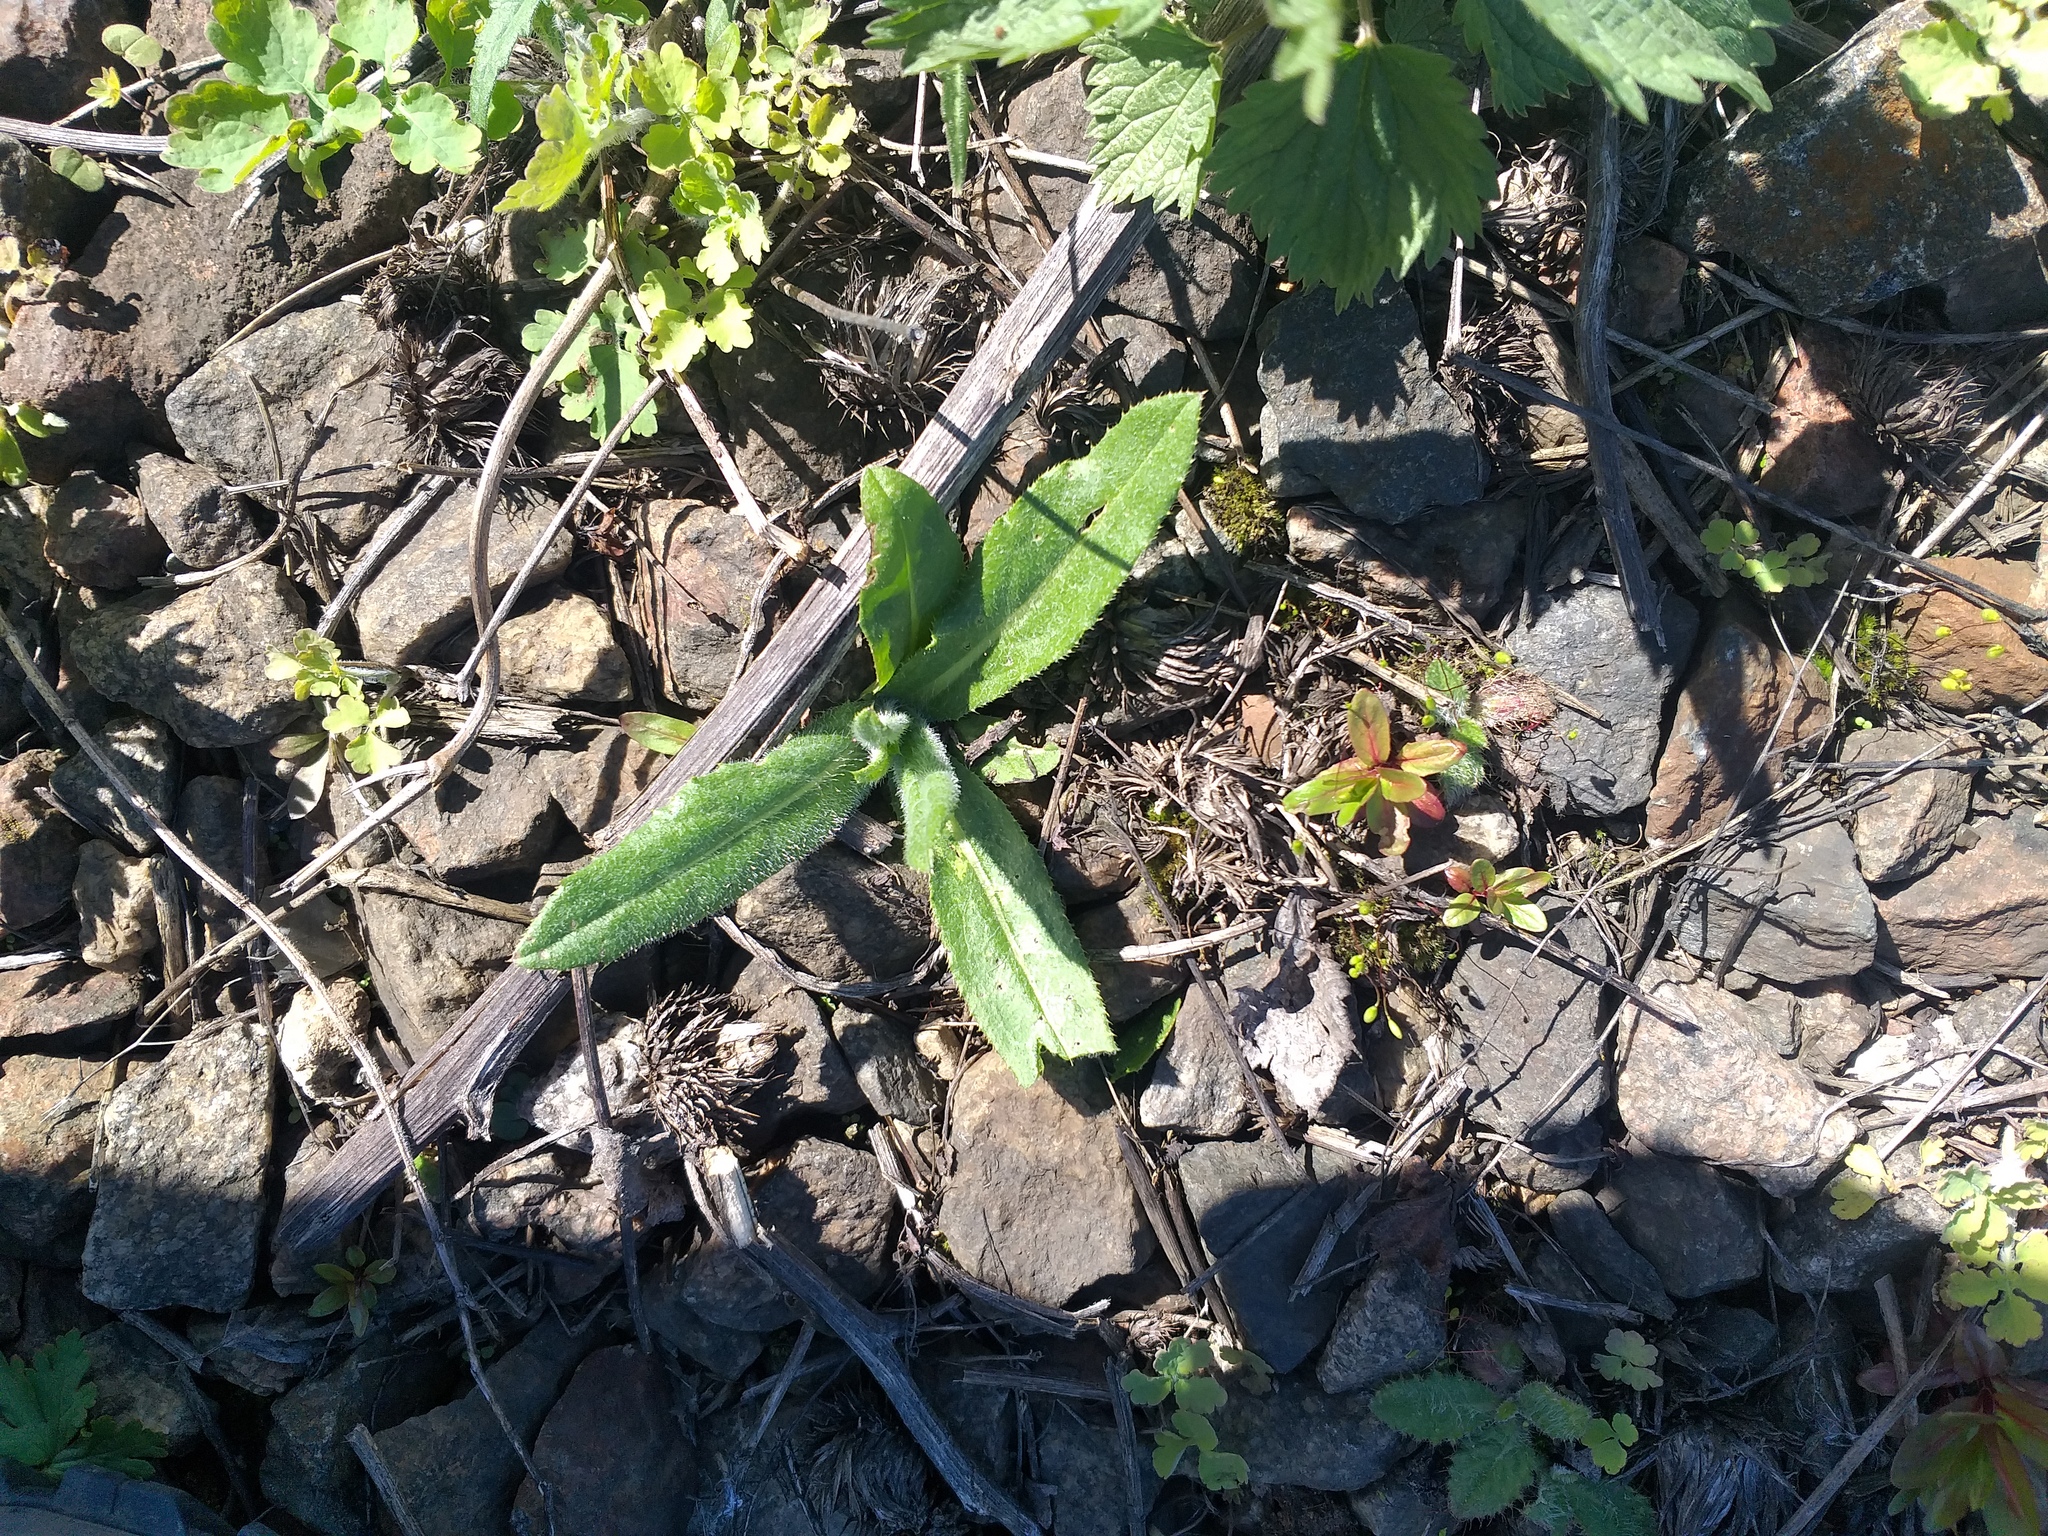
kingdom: Plantae
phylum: Tracheophyta
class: Magnoliopsida
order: Asterales
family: Asteraceae
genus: Cirsium
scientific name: Cirsium arvense
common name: Creeping thistle
